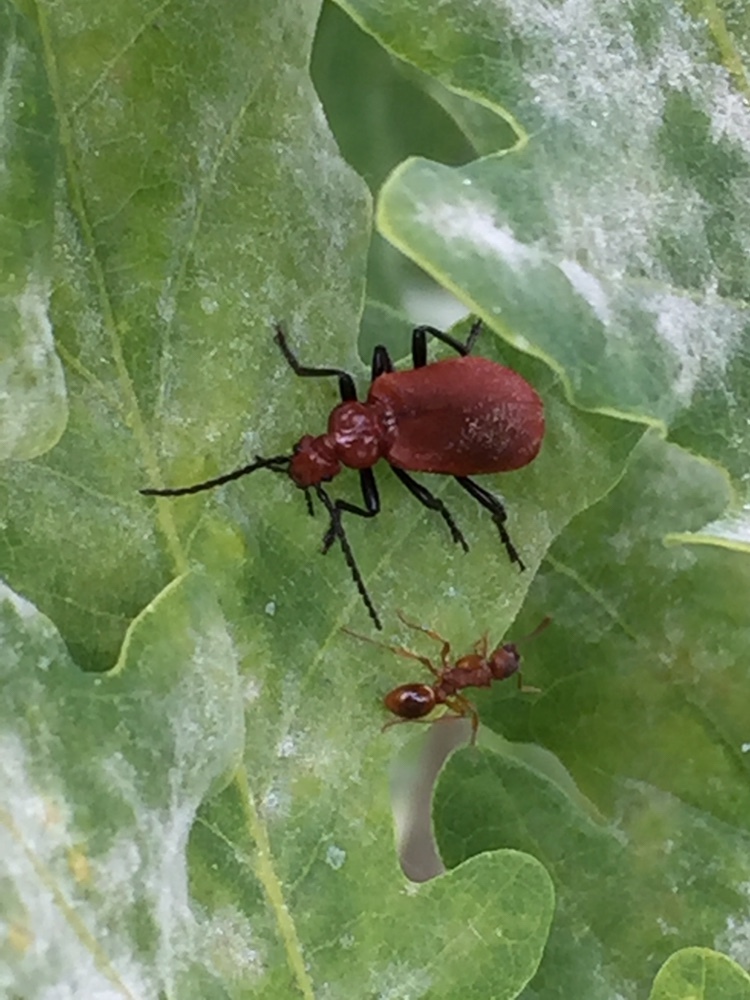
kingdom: Animalia
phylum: Arthropoda
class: Insecta
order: Coleoptera
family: Pyrochroidae
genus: Pyrochroa
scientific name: Pyrochroa serraticornis
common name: Red-headed cardinal beetle
